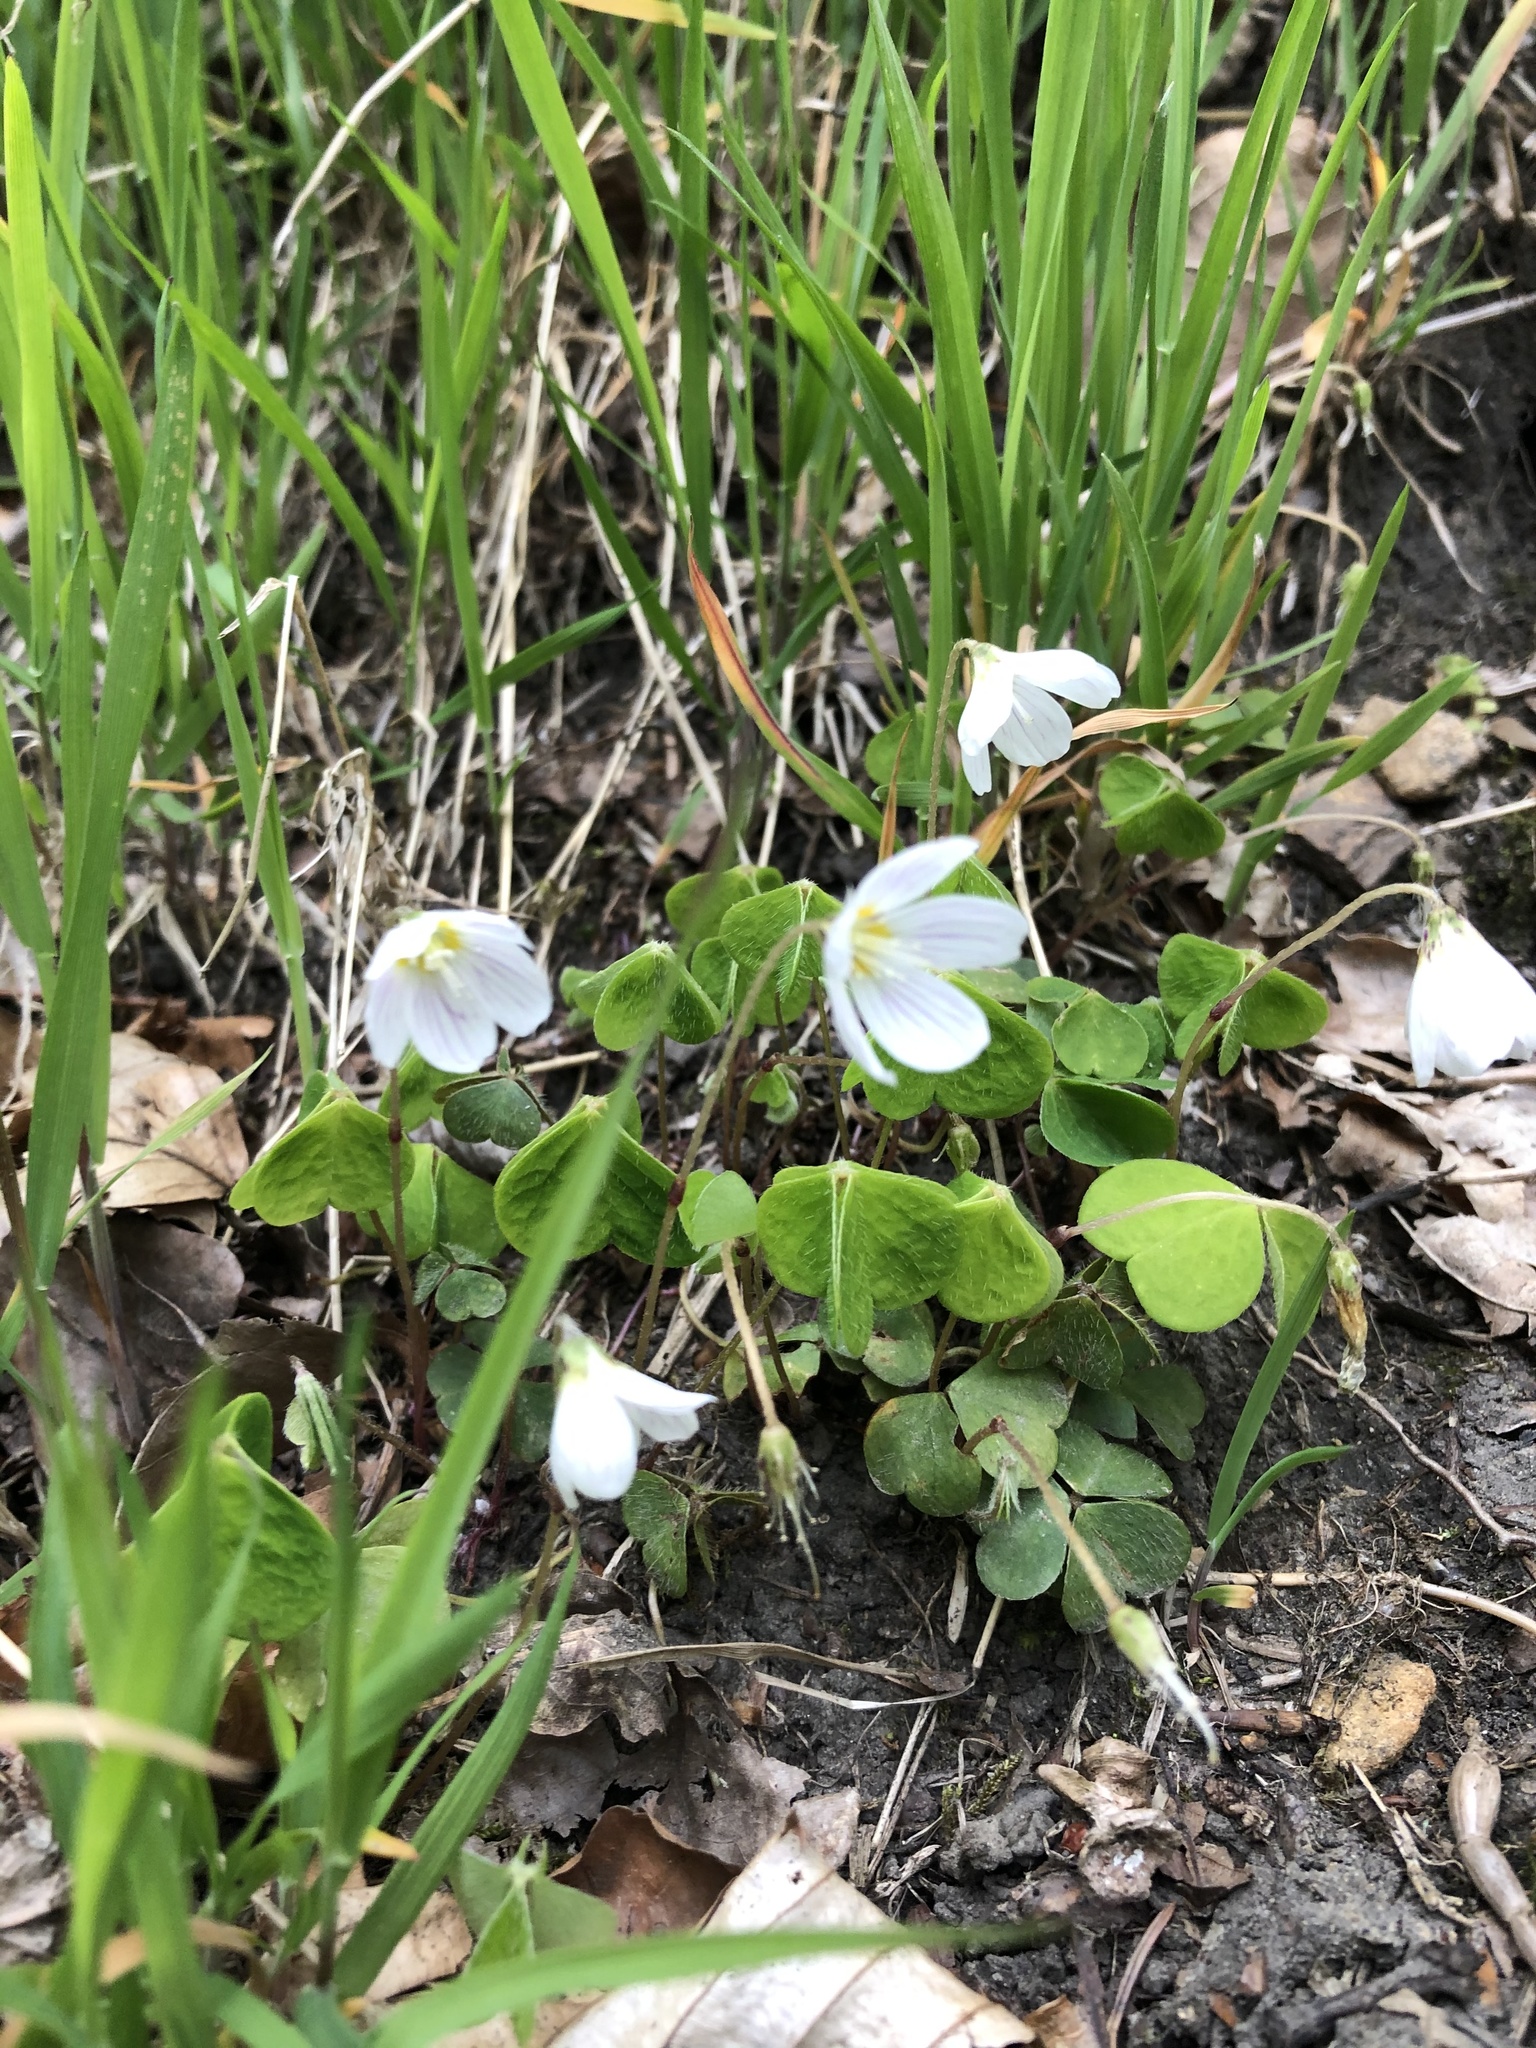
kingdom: Plantae
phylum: Tracheophyta
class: Magnoliopsida
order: Oxalidales
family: Oxalidaceae
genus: Oxalis
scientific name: Oxalis acetosella
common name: Wood-sorrel
